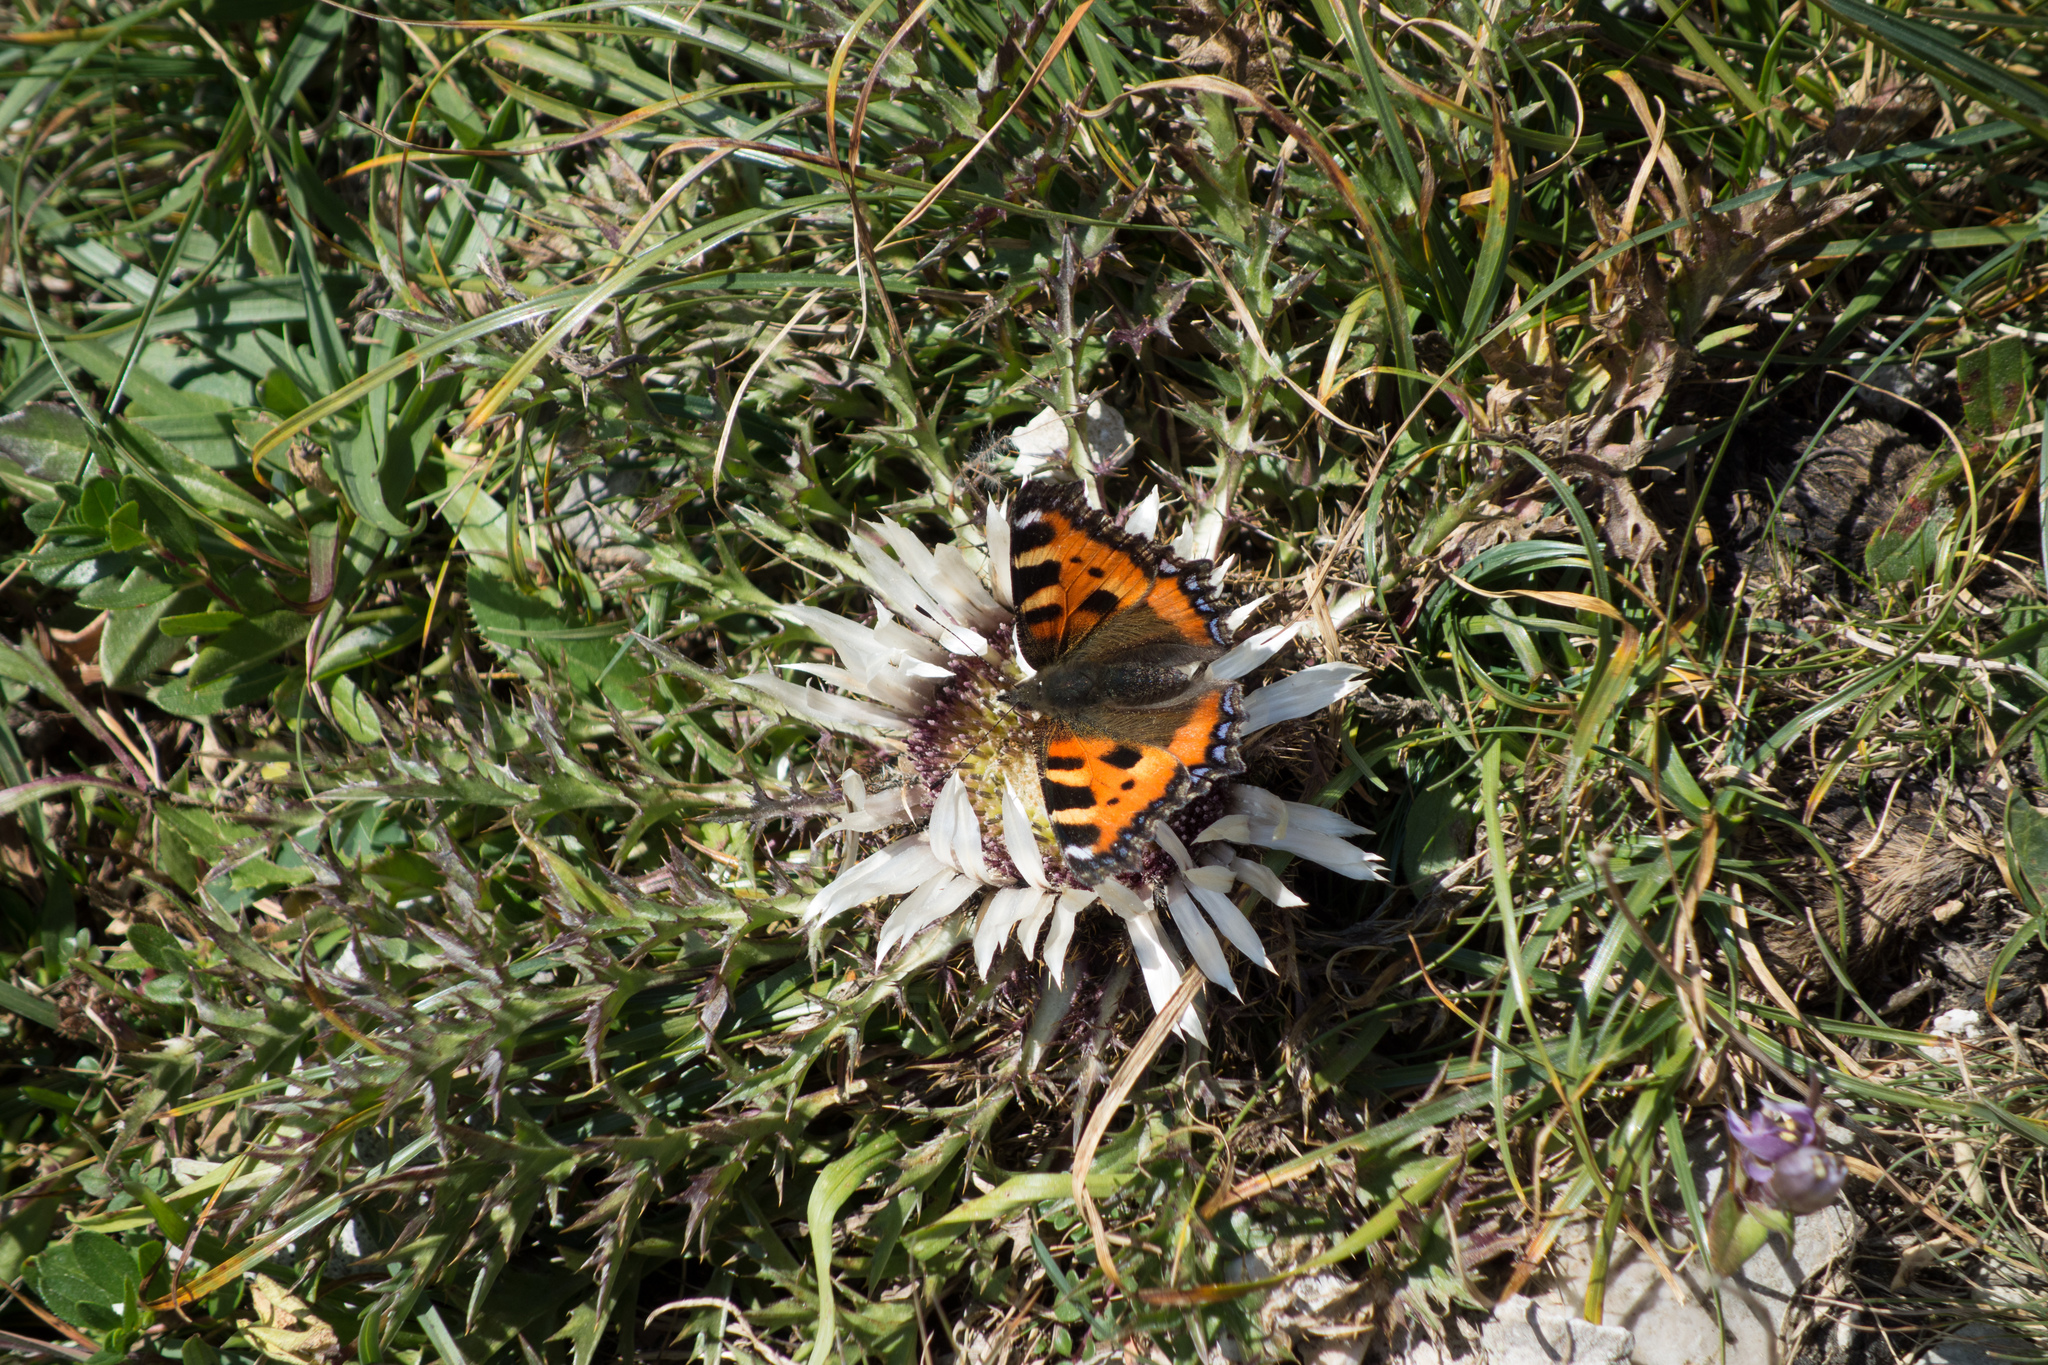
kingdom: Animalia
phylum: Arthropoda
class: Insecta
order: Lepidoptera
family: Nymphalidae
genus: Aglais
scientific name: Aglais urticae
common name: Small tortoiseshell
